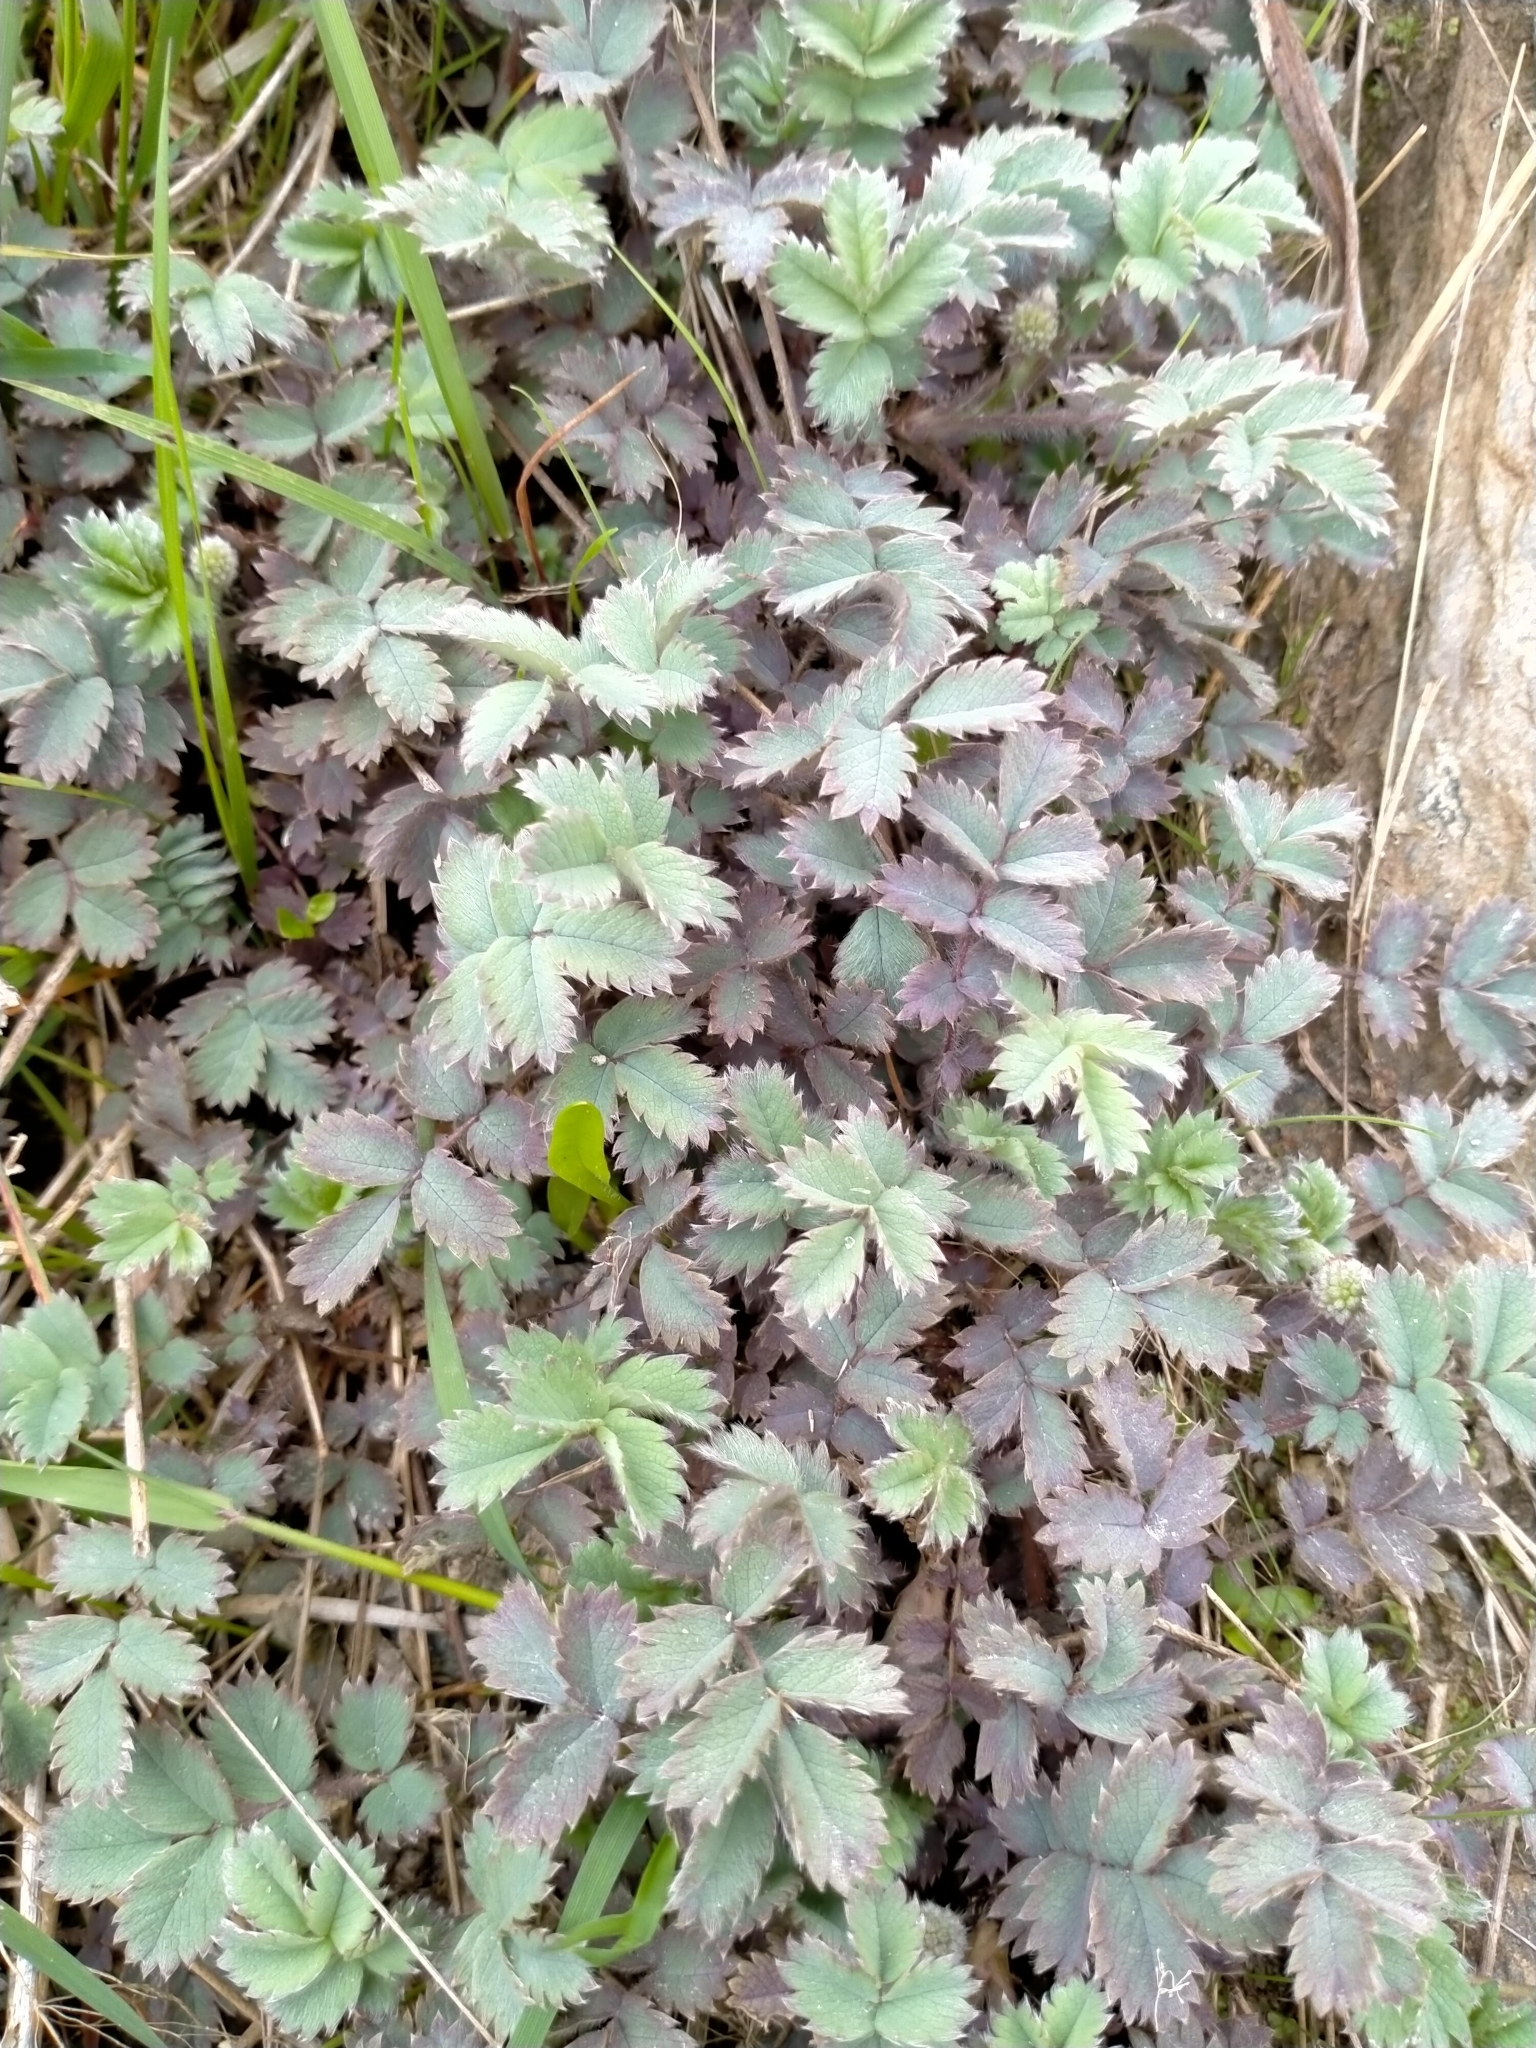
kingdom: Plantae
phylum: Tracheophyta
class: Magnoliopsida
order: Rosales
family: Rosaceae
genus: Acaena
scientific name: Acaena caesiiglauca
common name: Glaucous pirri-pirri-bur
